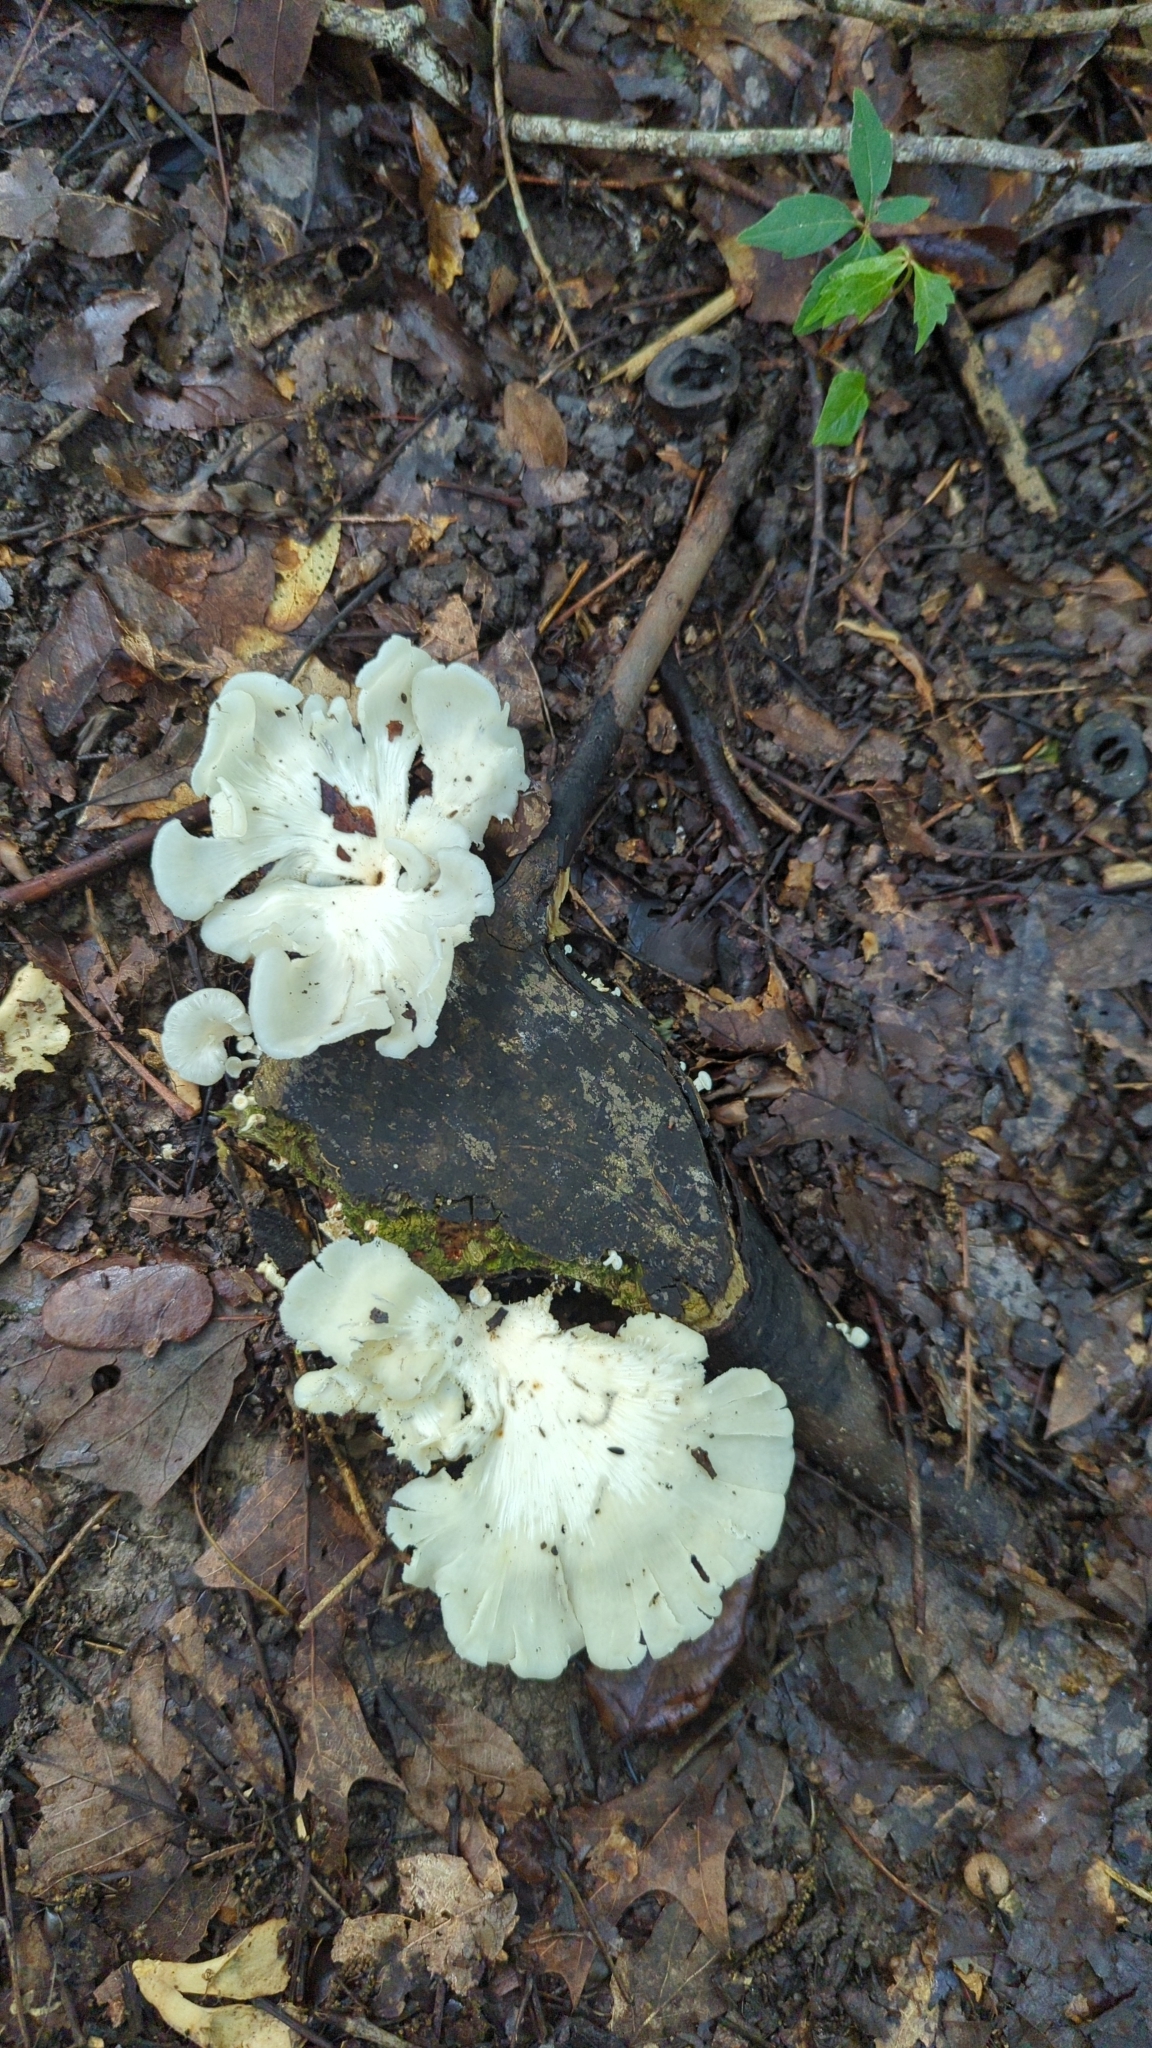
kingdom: Fungi
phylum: Basidiomycota
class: Agaricomycetes
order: Polyporales
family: Polyporaceae
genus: Favolus
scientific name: Favolus tenuiculus
